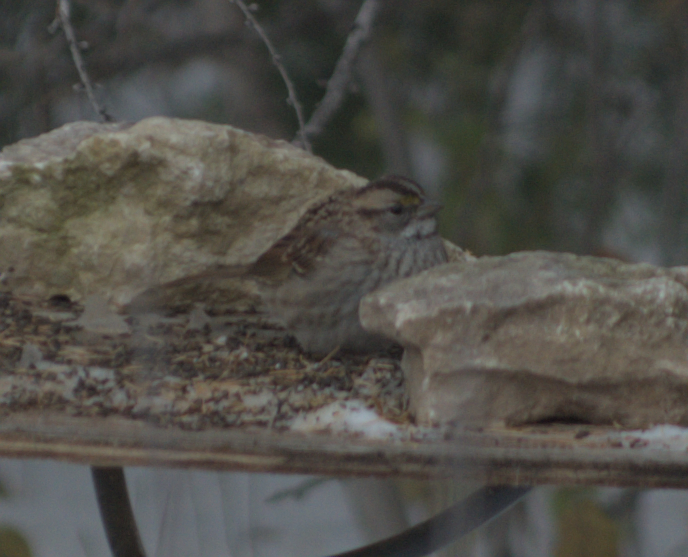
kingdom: Animalia
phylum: Chordata
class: Aves
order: Passeriformes
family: Passerellidae
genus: Zonotrichia
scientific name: Zonotrichia albicollis
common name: White-throated sparrow
